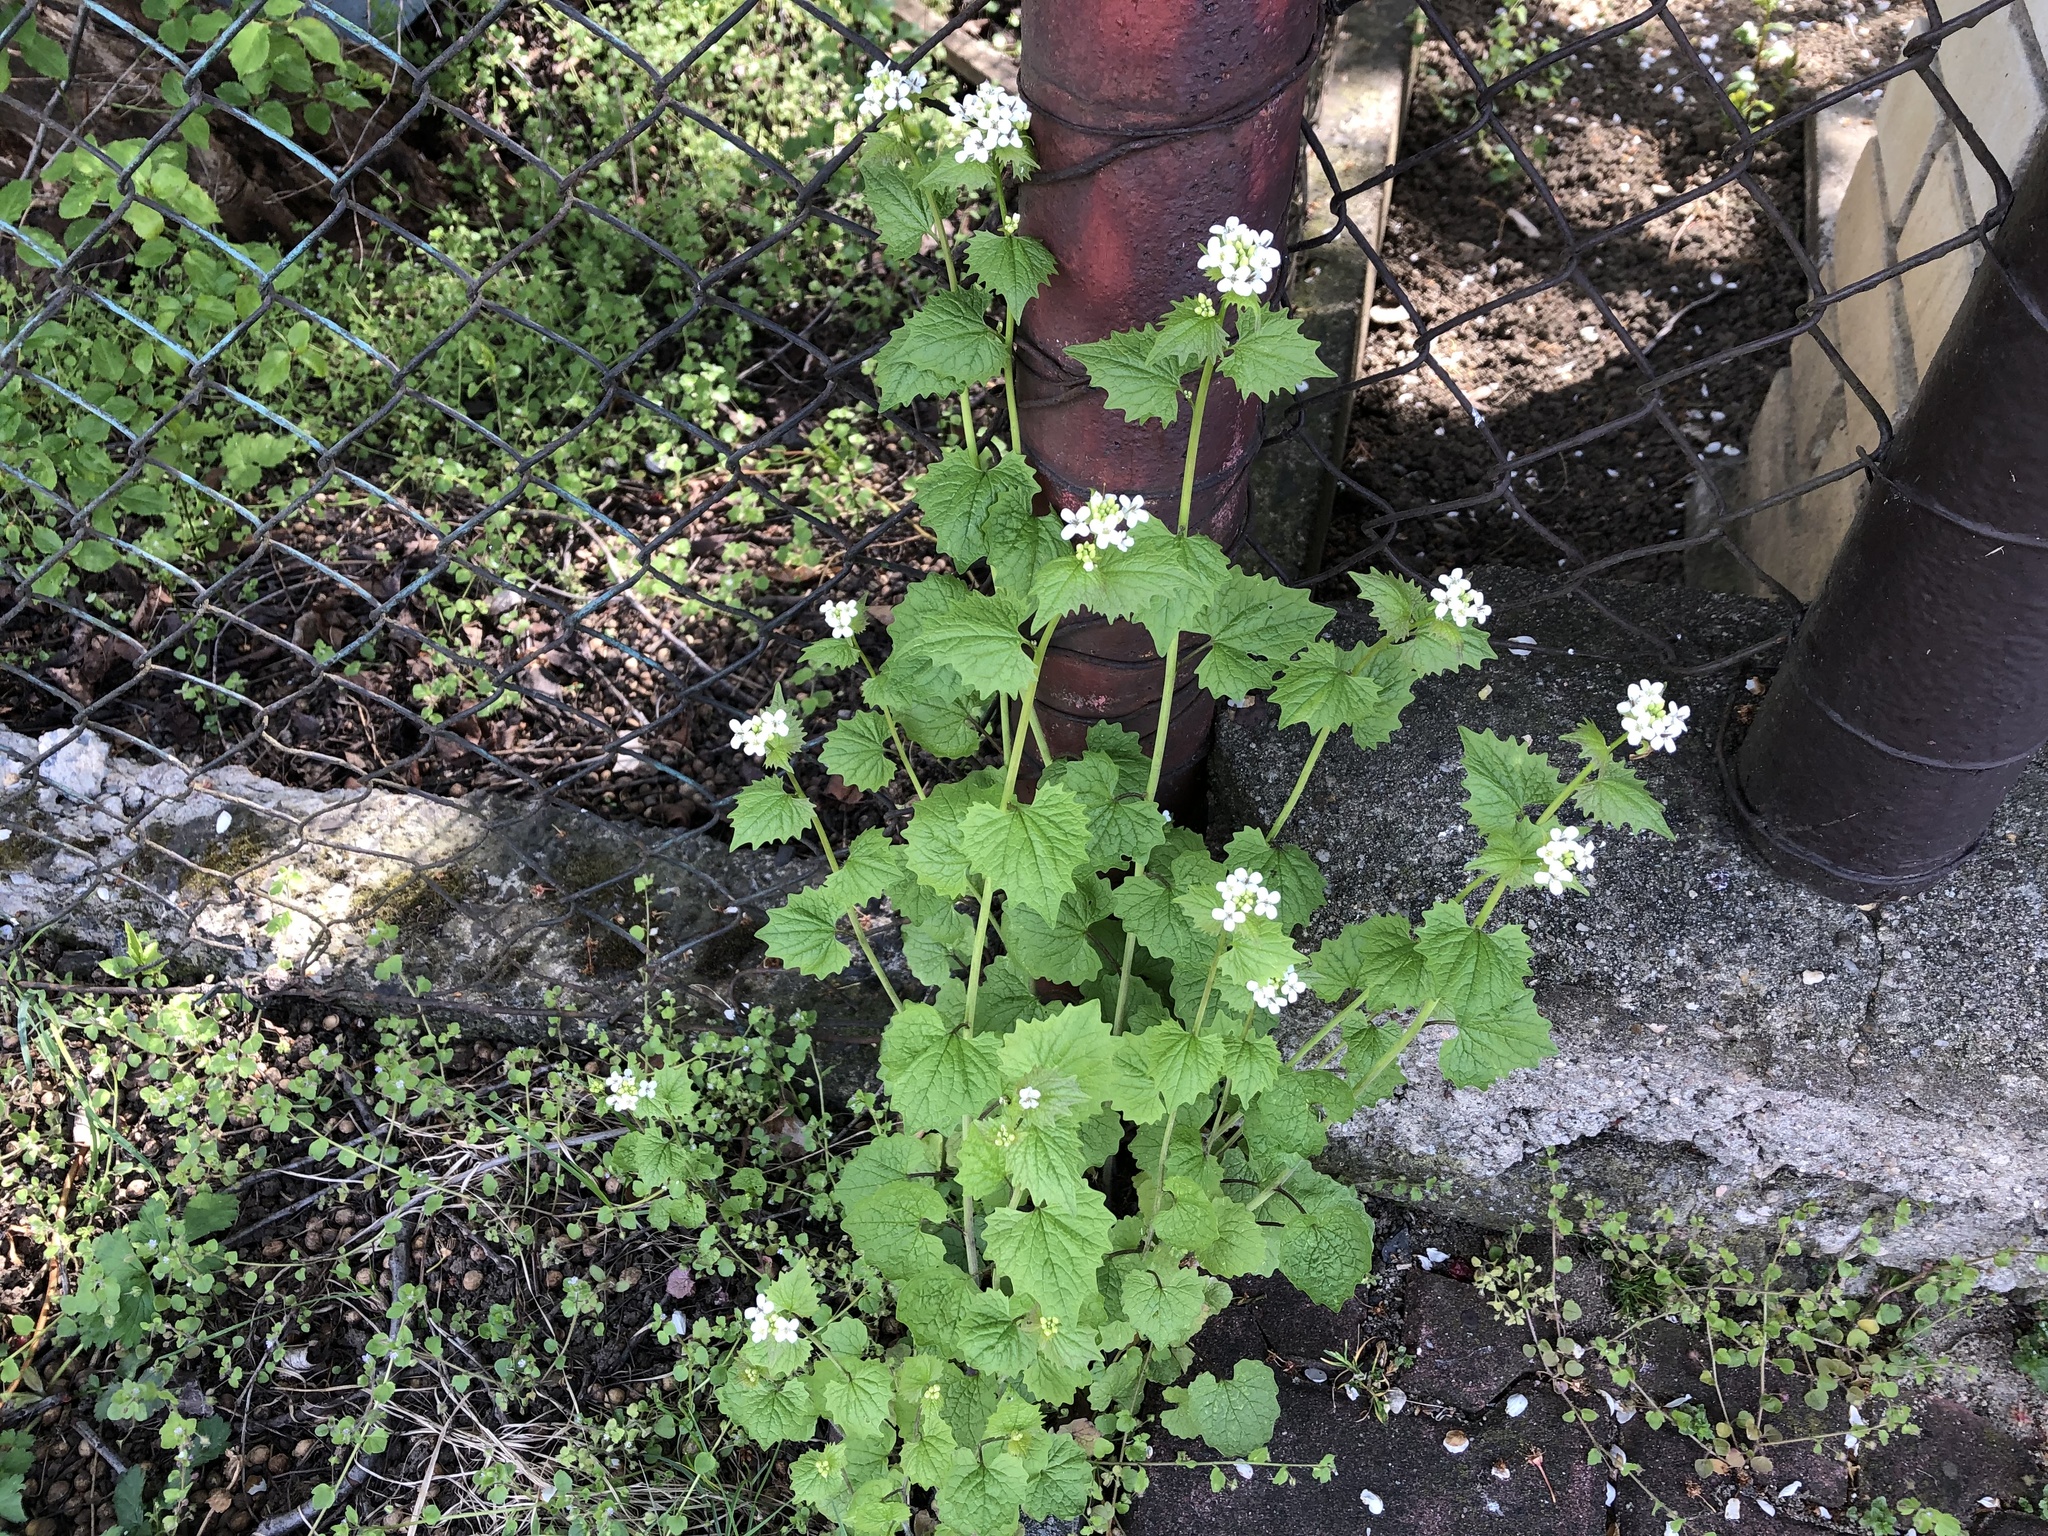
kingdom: Plantae
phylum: Tracheophyta
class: Magnoliopsida
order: Brassicales
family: Brassicaceae
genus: Alliaria
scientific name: Alliaria petiolata
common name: Garlic mustard
